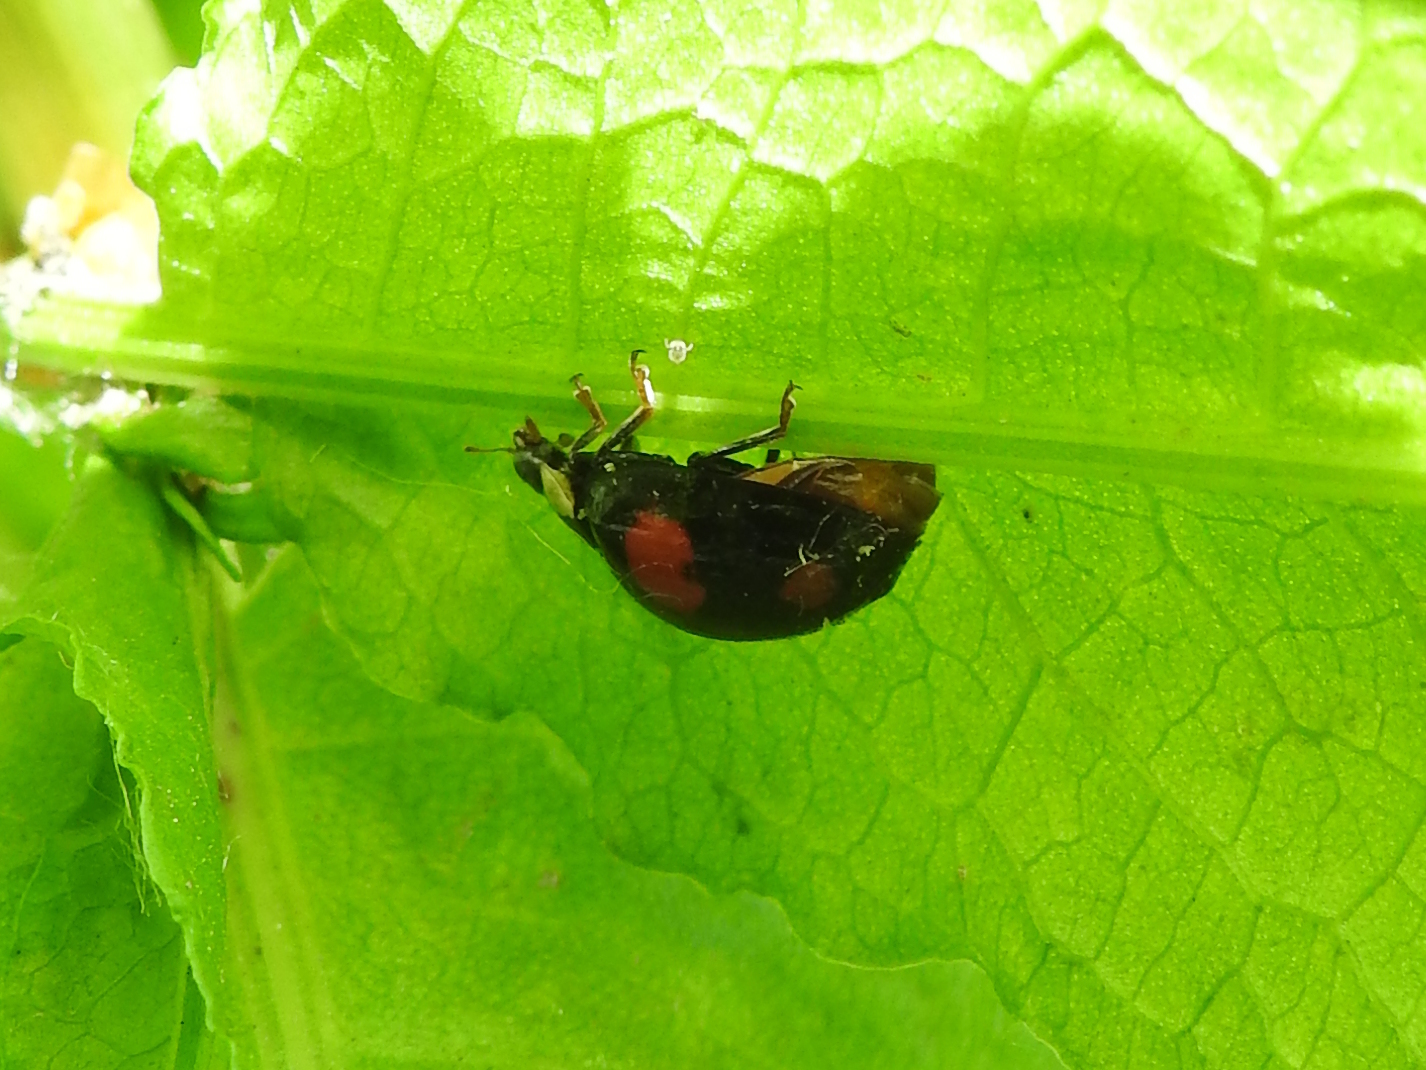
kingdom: Animalia
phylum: Arthropoda
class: Insecta
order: Coleoptera
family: Coccinellidae
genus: Harmonia
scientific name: Harmonia axyridis
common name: Harlequin ladybird
